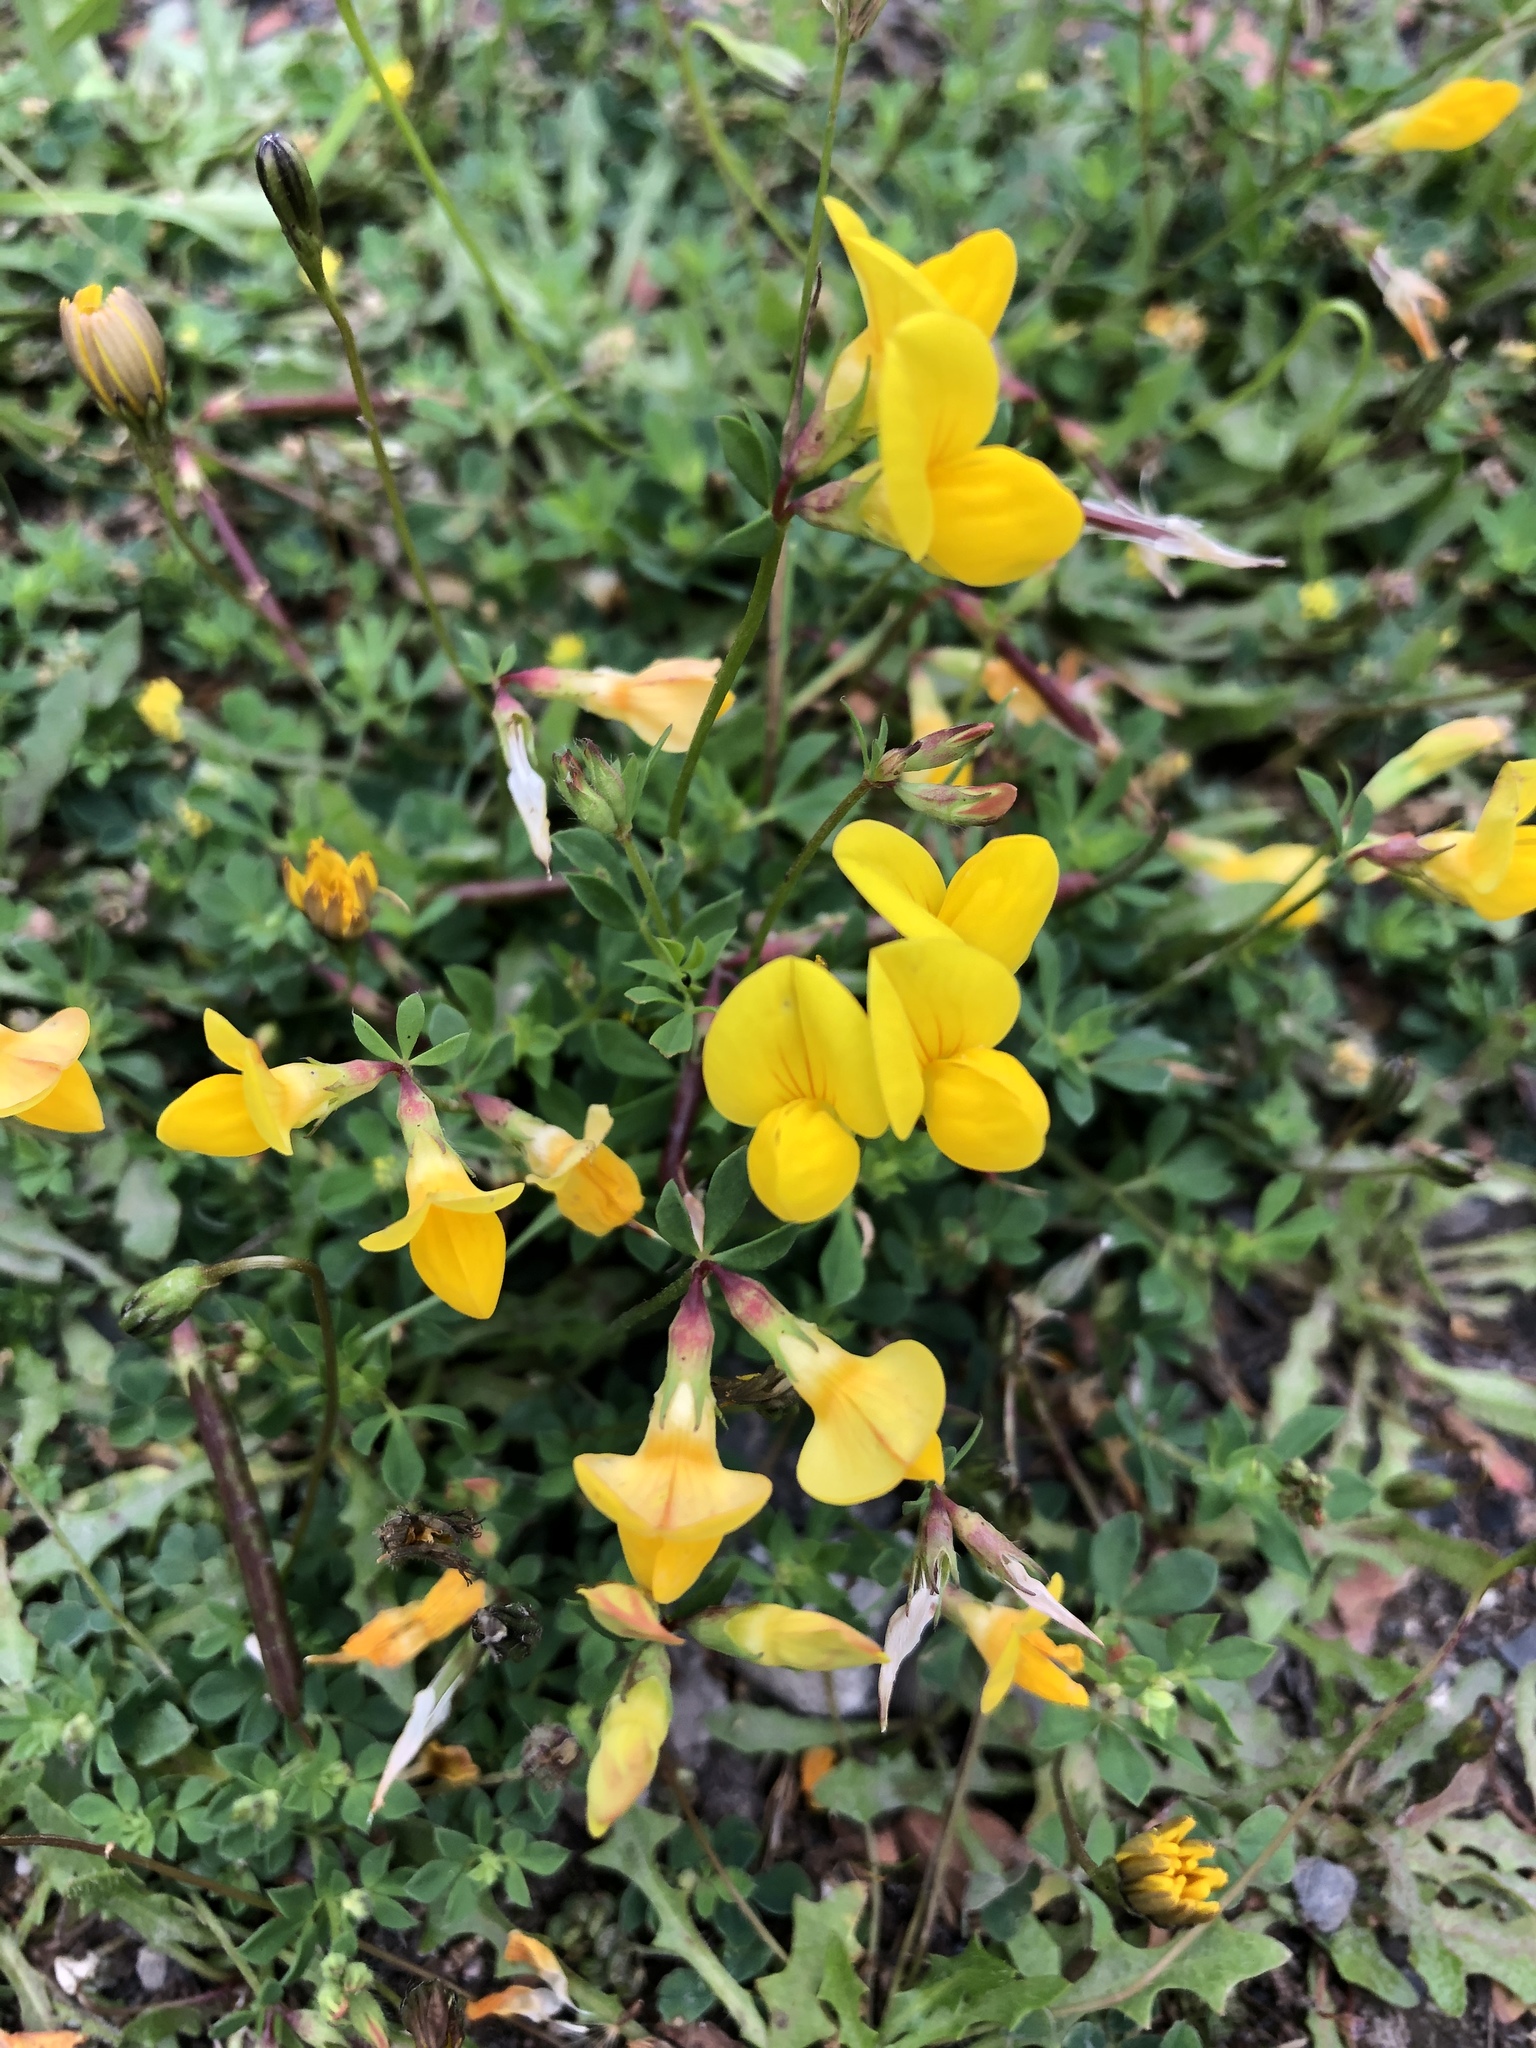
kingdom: Plantae
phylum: Tracheophyta
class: Magnoliopsida
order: Fabales
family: Fabaceae
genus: Lotus
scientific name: Lotus corniculatus
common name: Common bird's-foot-trefoil
